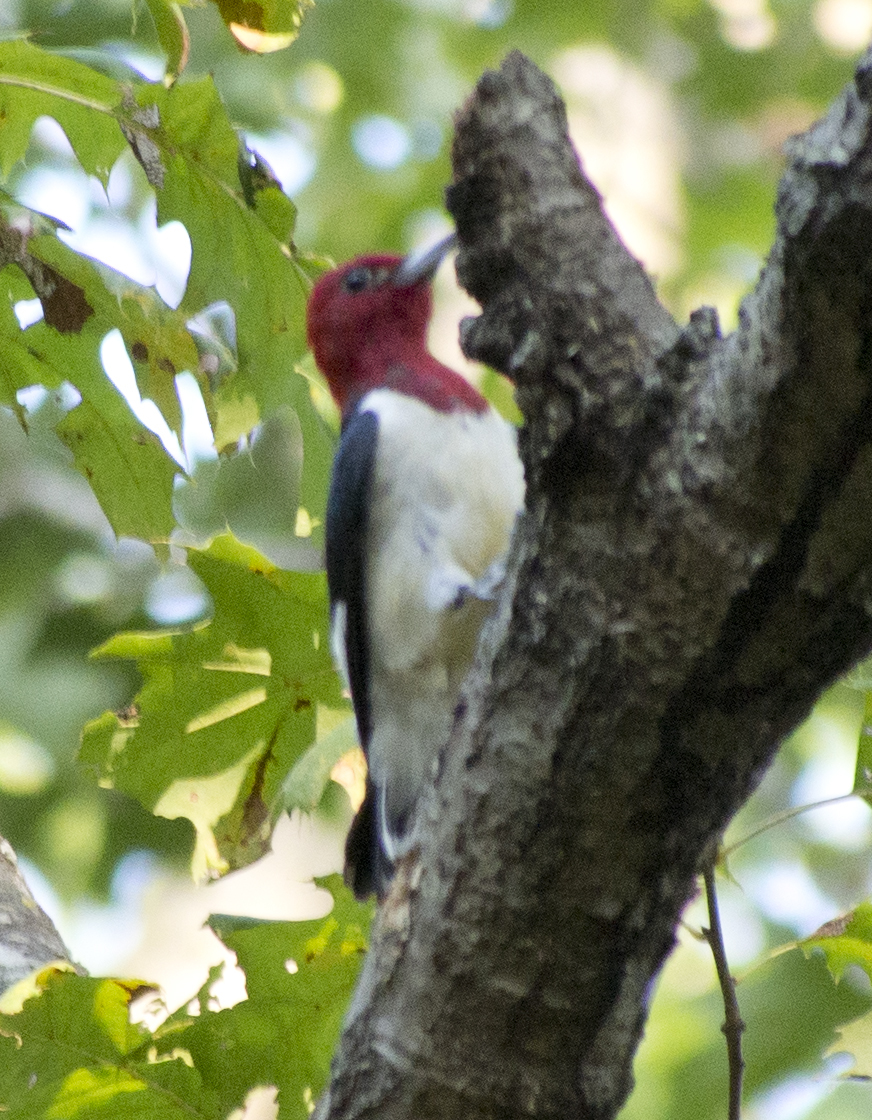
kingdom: Animalia
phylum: Chordata
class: Aves
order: Piciformes
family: Picidae
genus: Melanerpes
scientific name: Melanerpes erythrocephalus
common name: Red-headed woodpecker
